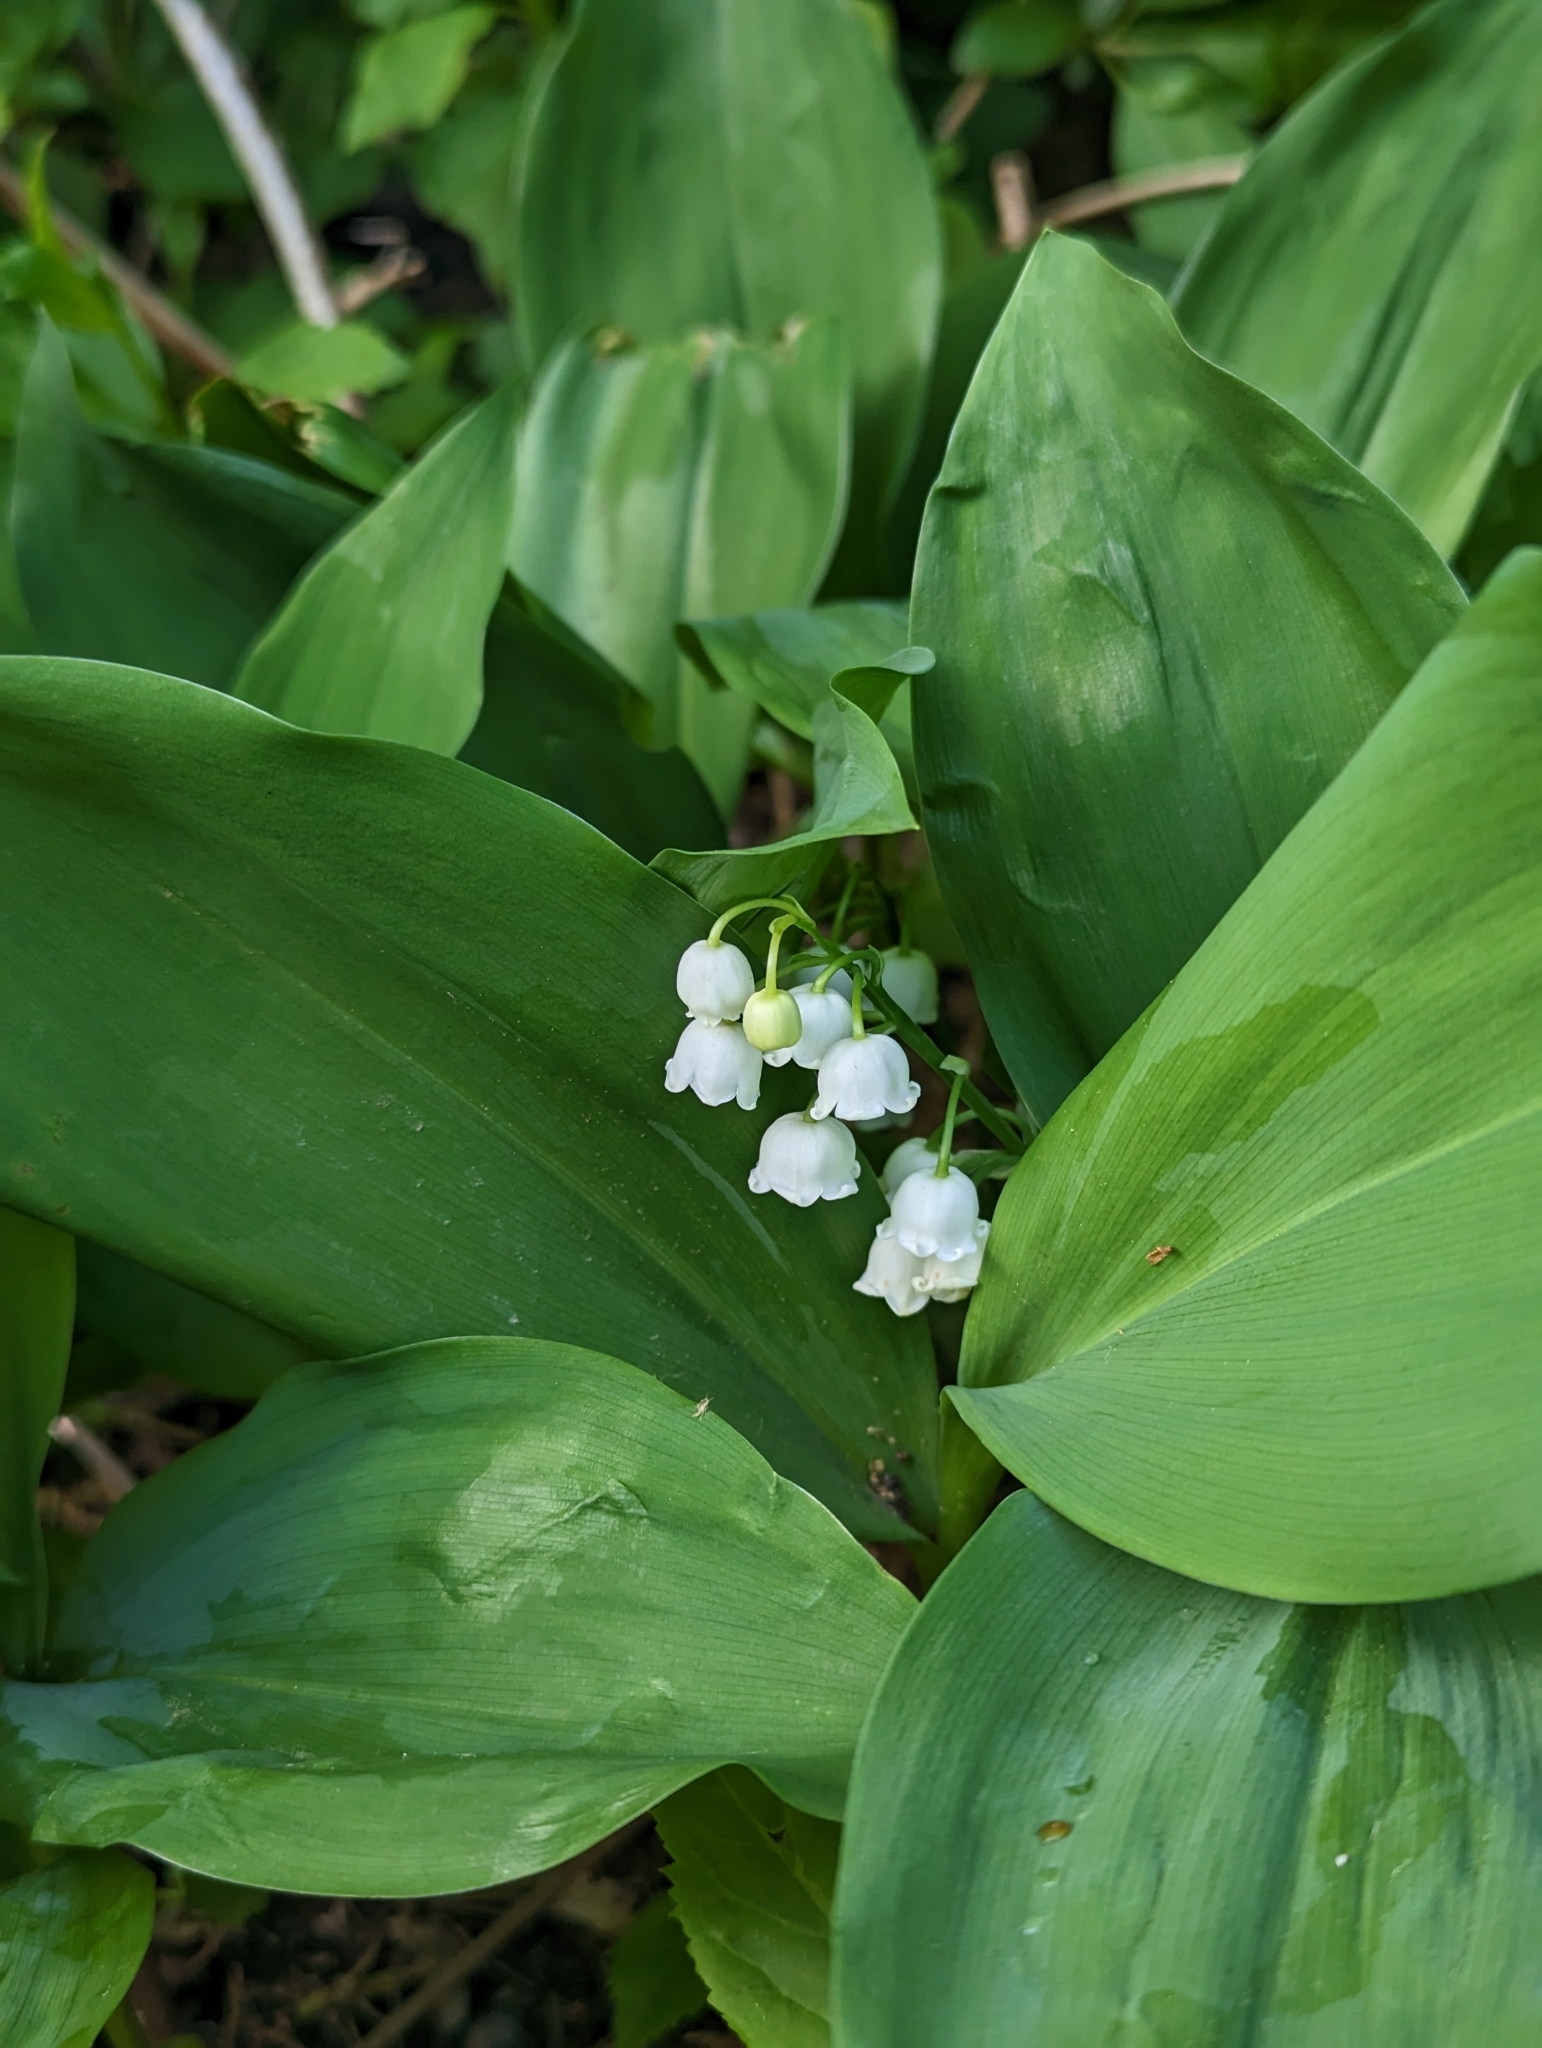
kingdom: Plantae
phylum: Tracheophyta
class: Liliopsida
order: Asparagales
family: Asparagaceae
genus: Convallaria
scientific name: Convallaria majalis
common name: Lily-of-the-valley
